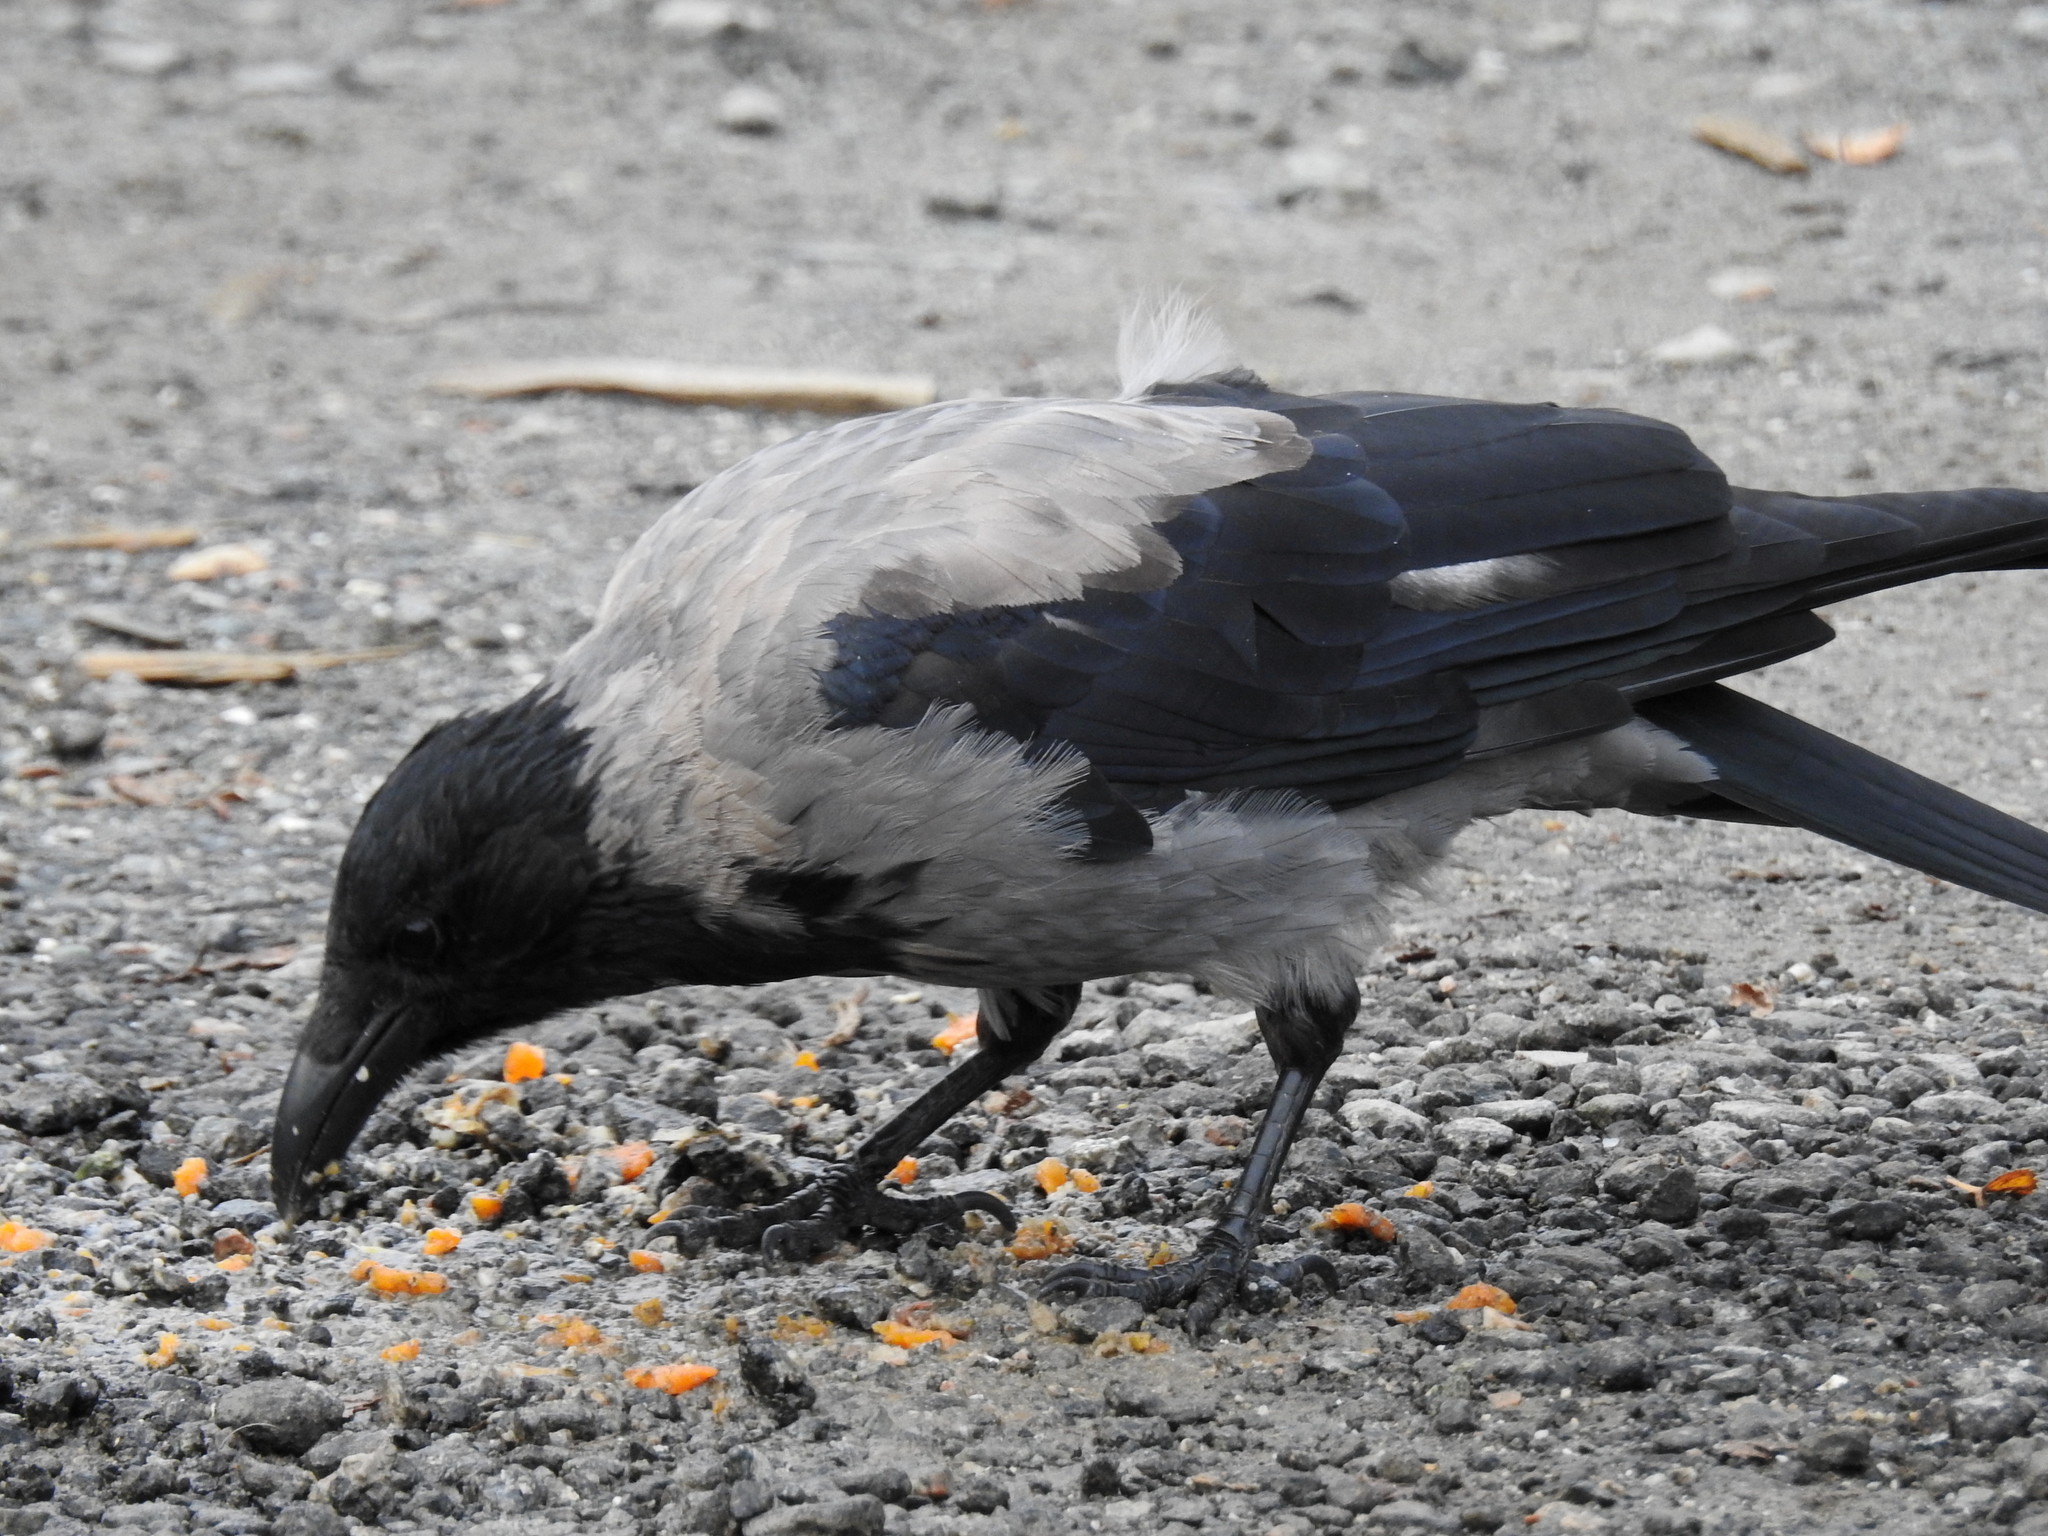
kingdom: Animalia
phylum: Chordata
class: Aves
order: Passeriformes
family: Corvidae
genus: Corvus
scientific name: Corvus cornix
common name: Hooded crow
